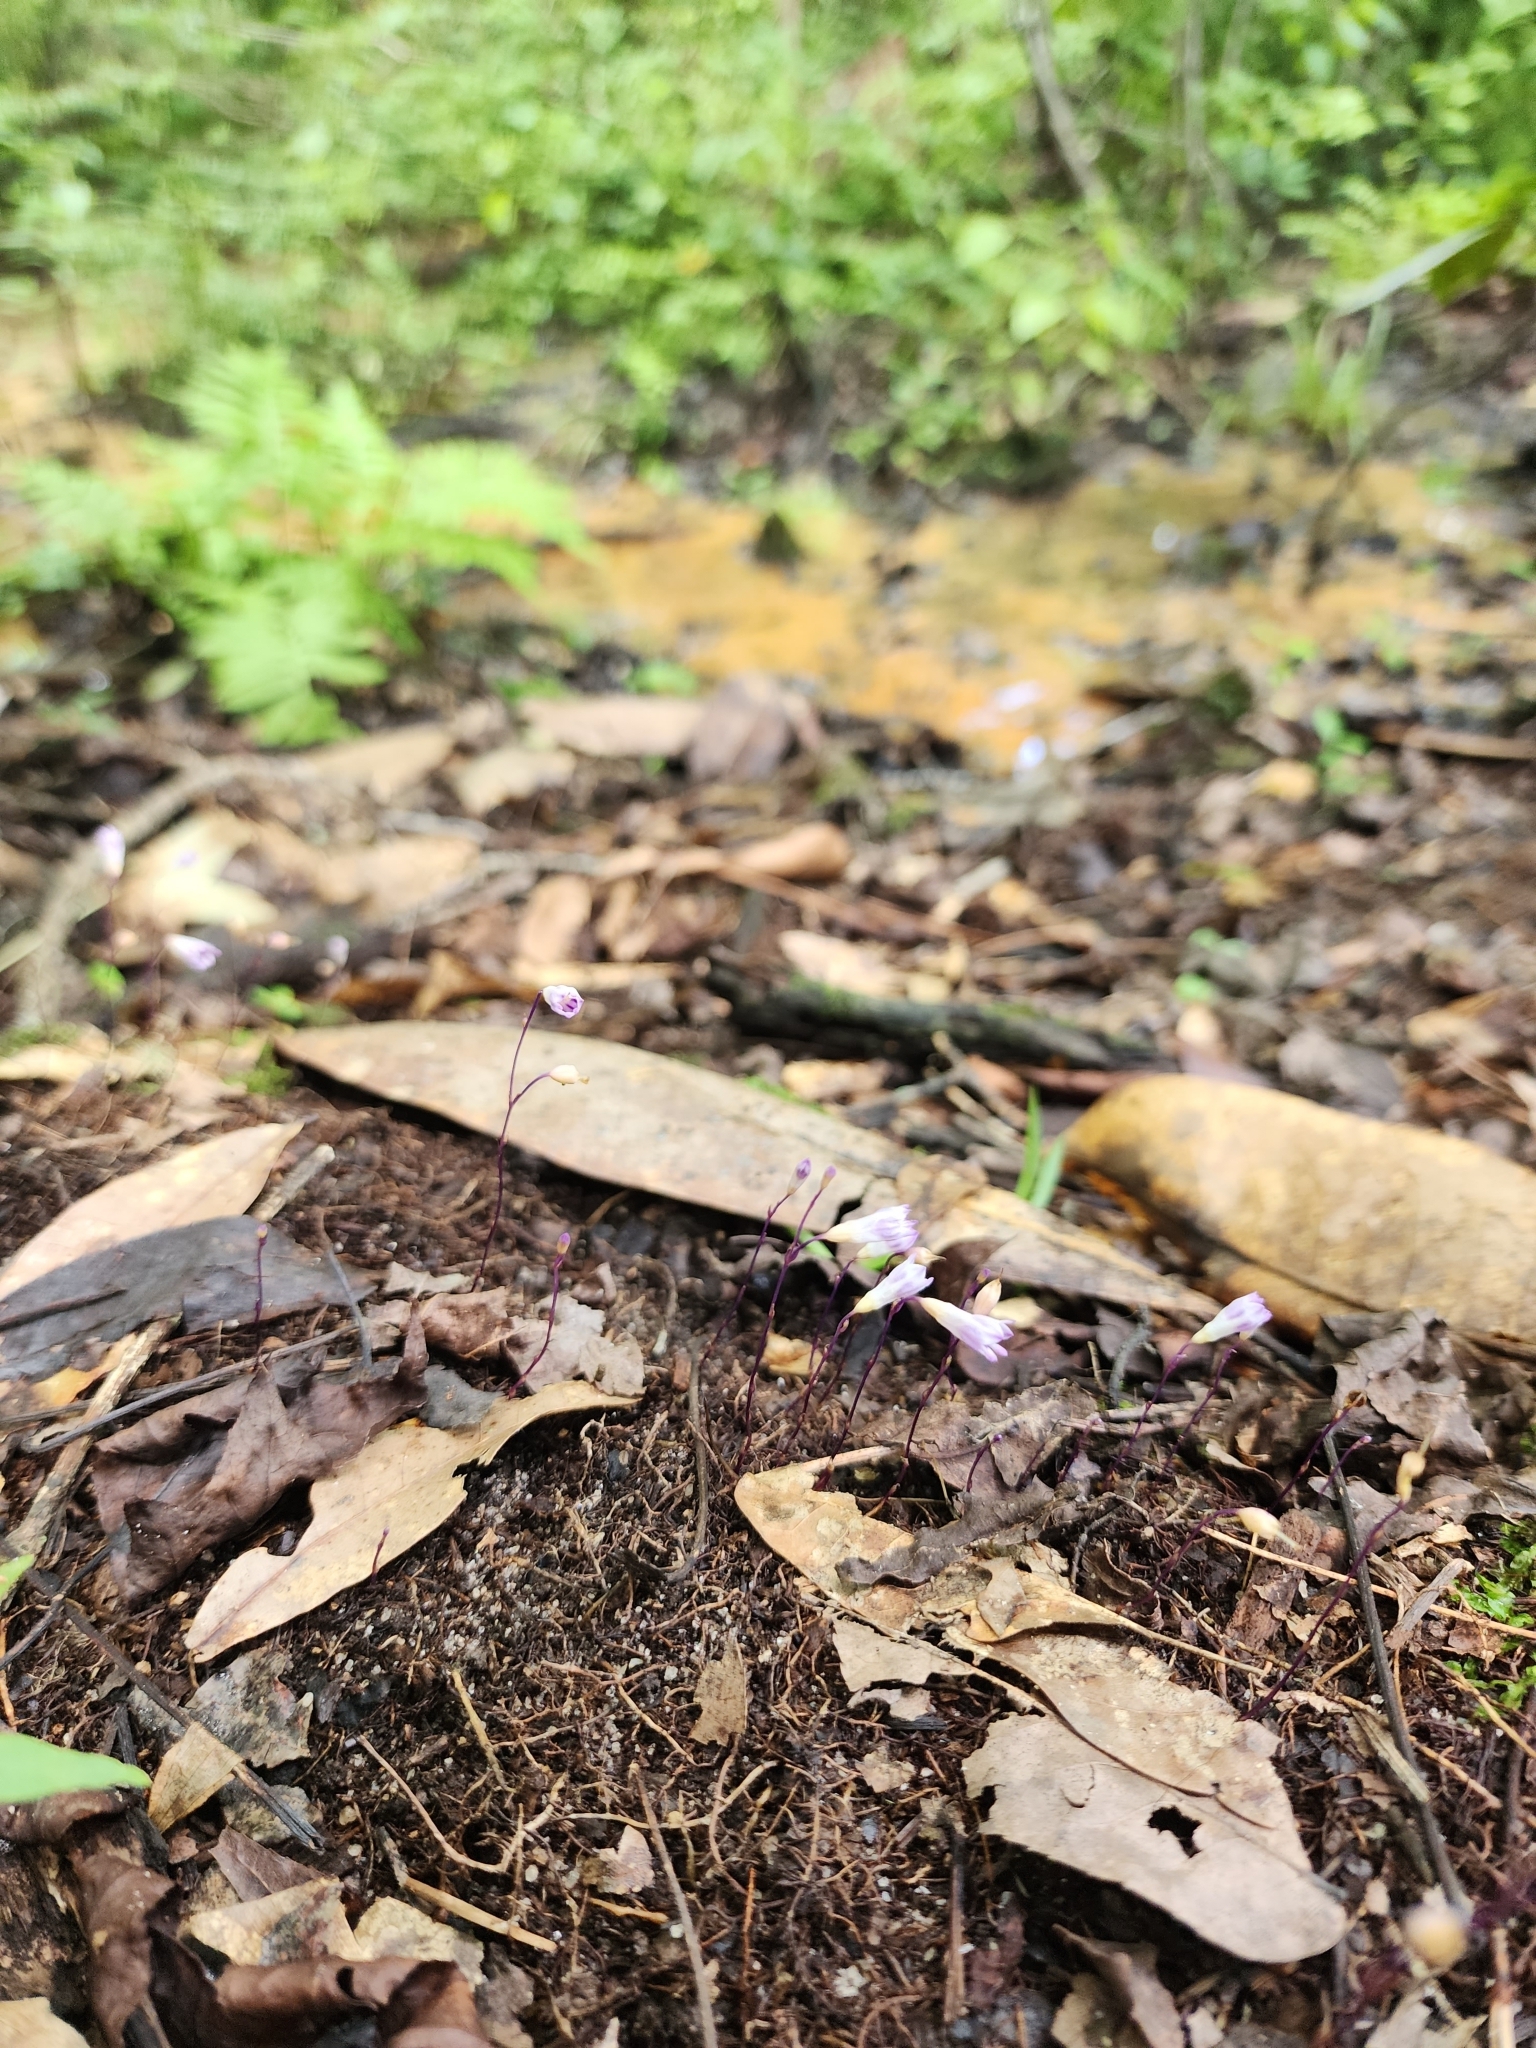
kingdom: Plantae
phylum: Tracheophyta
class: Liliopsida
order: Dioscoreales
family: Burmanniaceae
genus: Apteria
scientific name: Apteria aphylla
